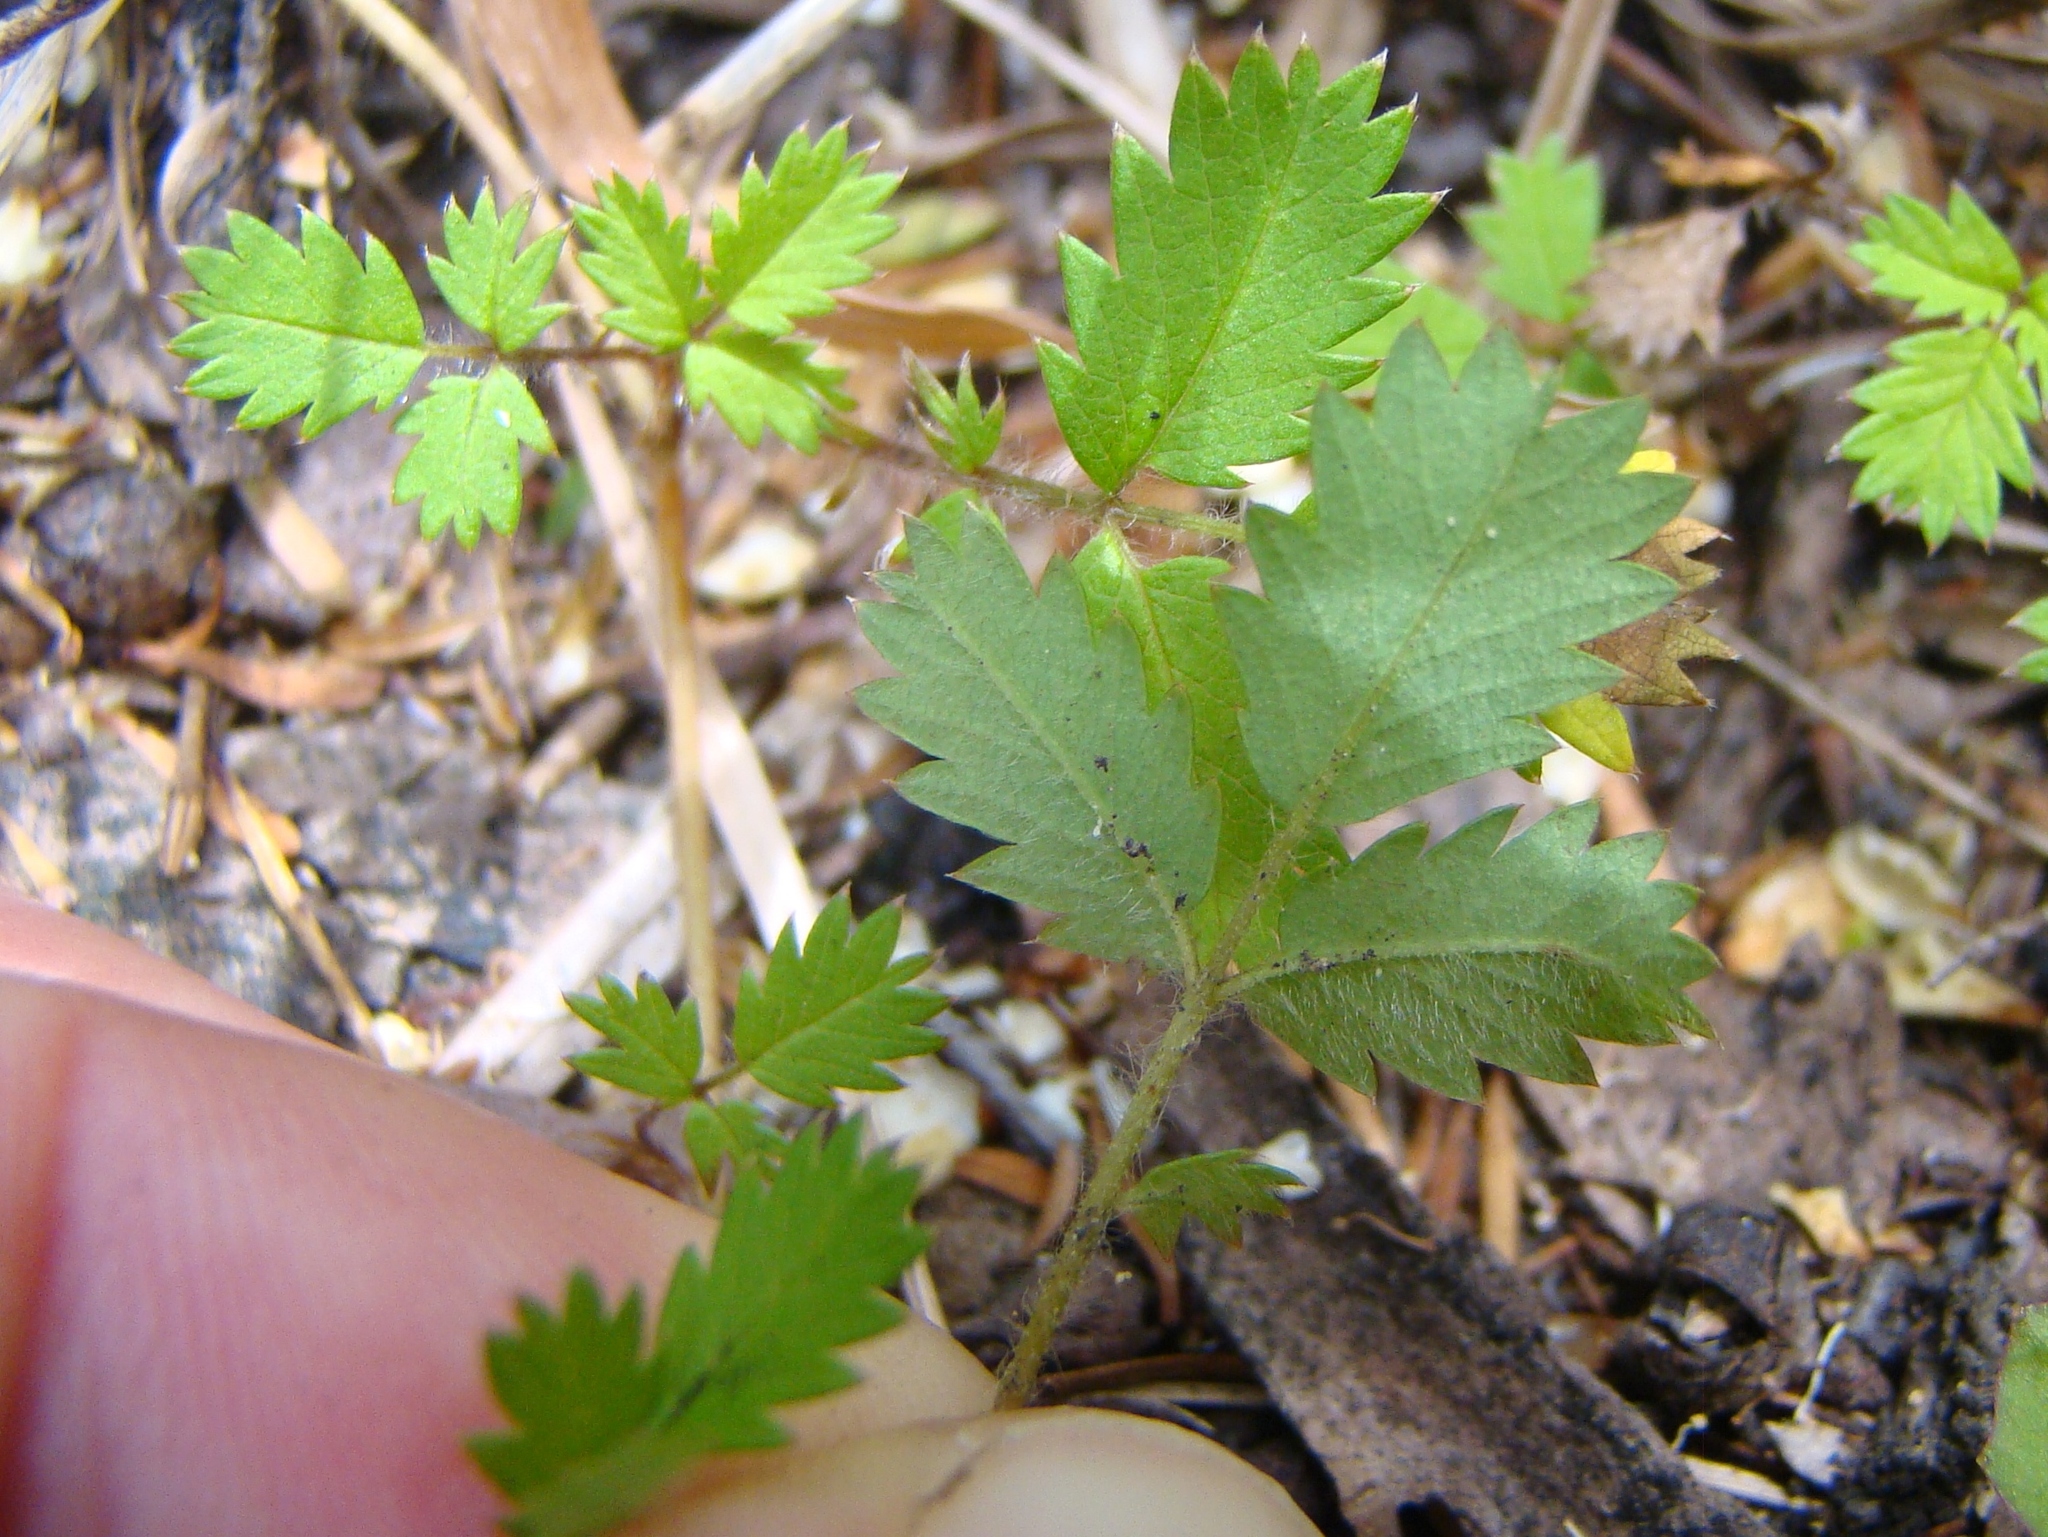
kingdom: Plantae
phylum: Tracheophyta
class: Magnoliopsida
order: Rosales
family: Rosaceae
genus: Acaena
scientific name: Acaena juvenca
